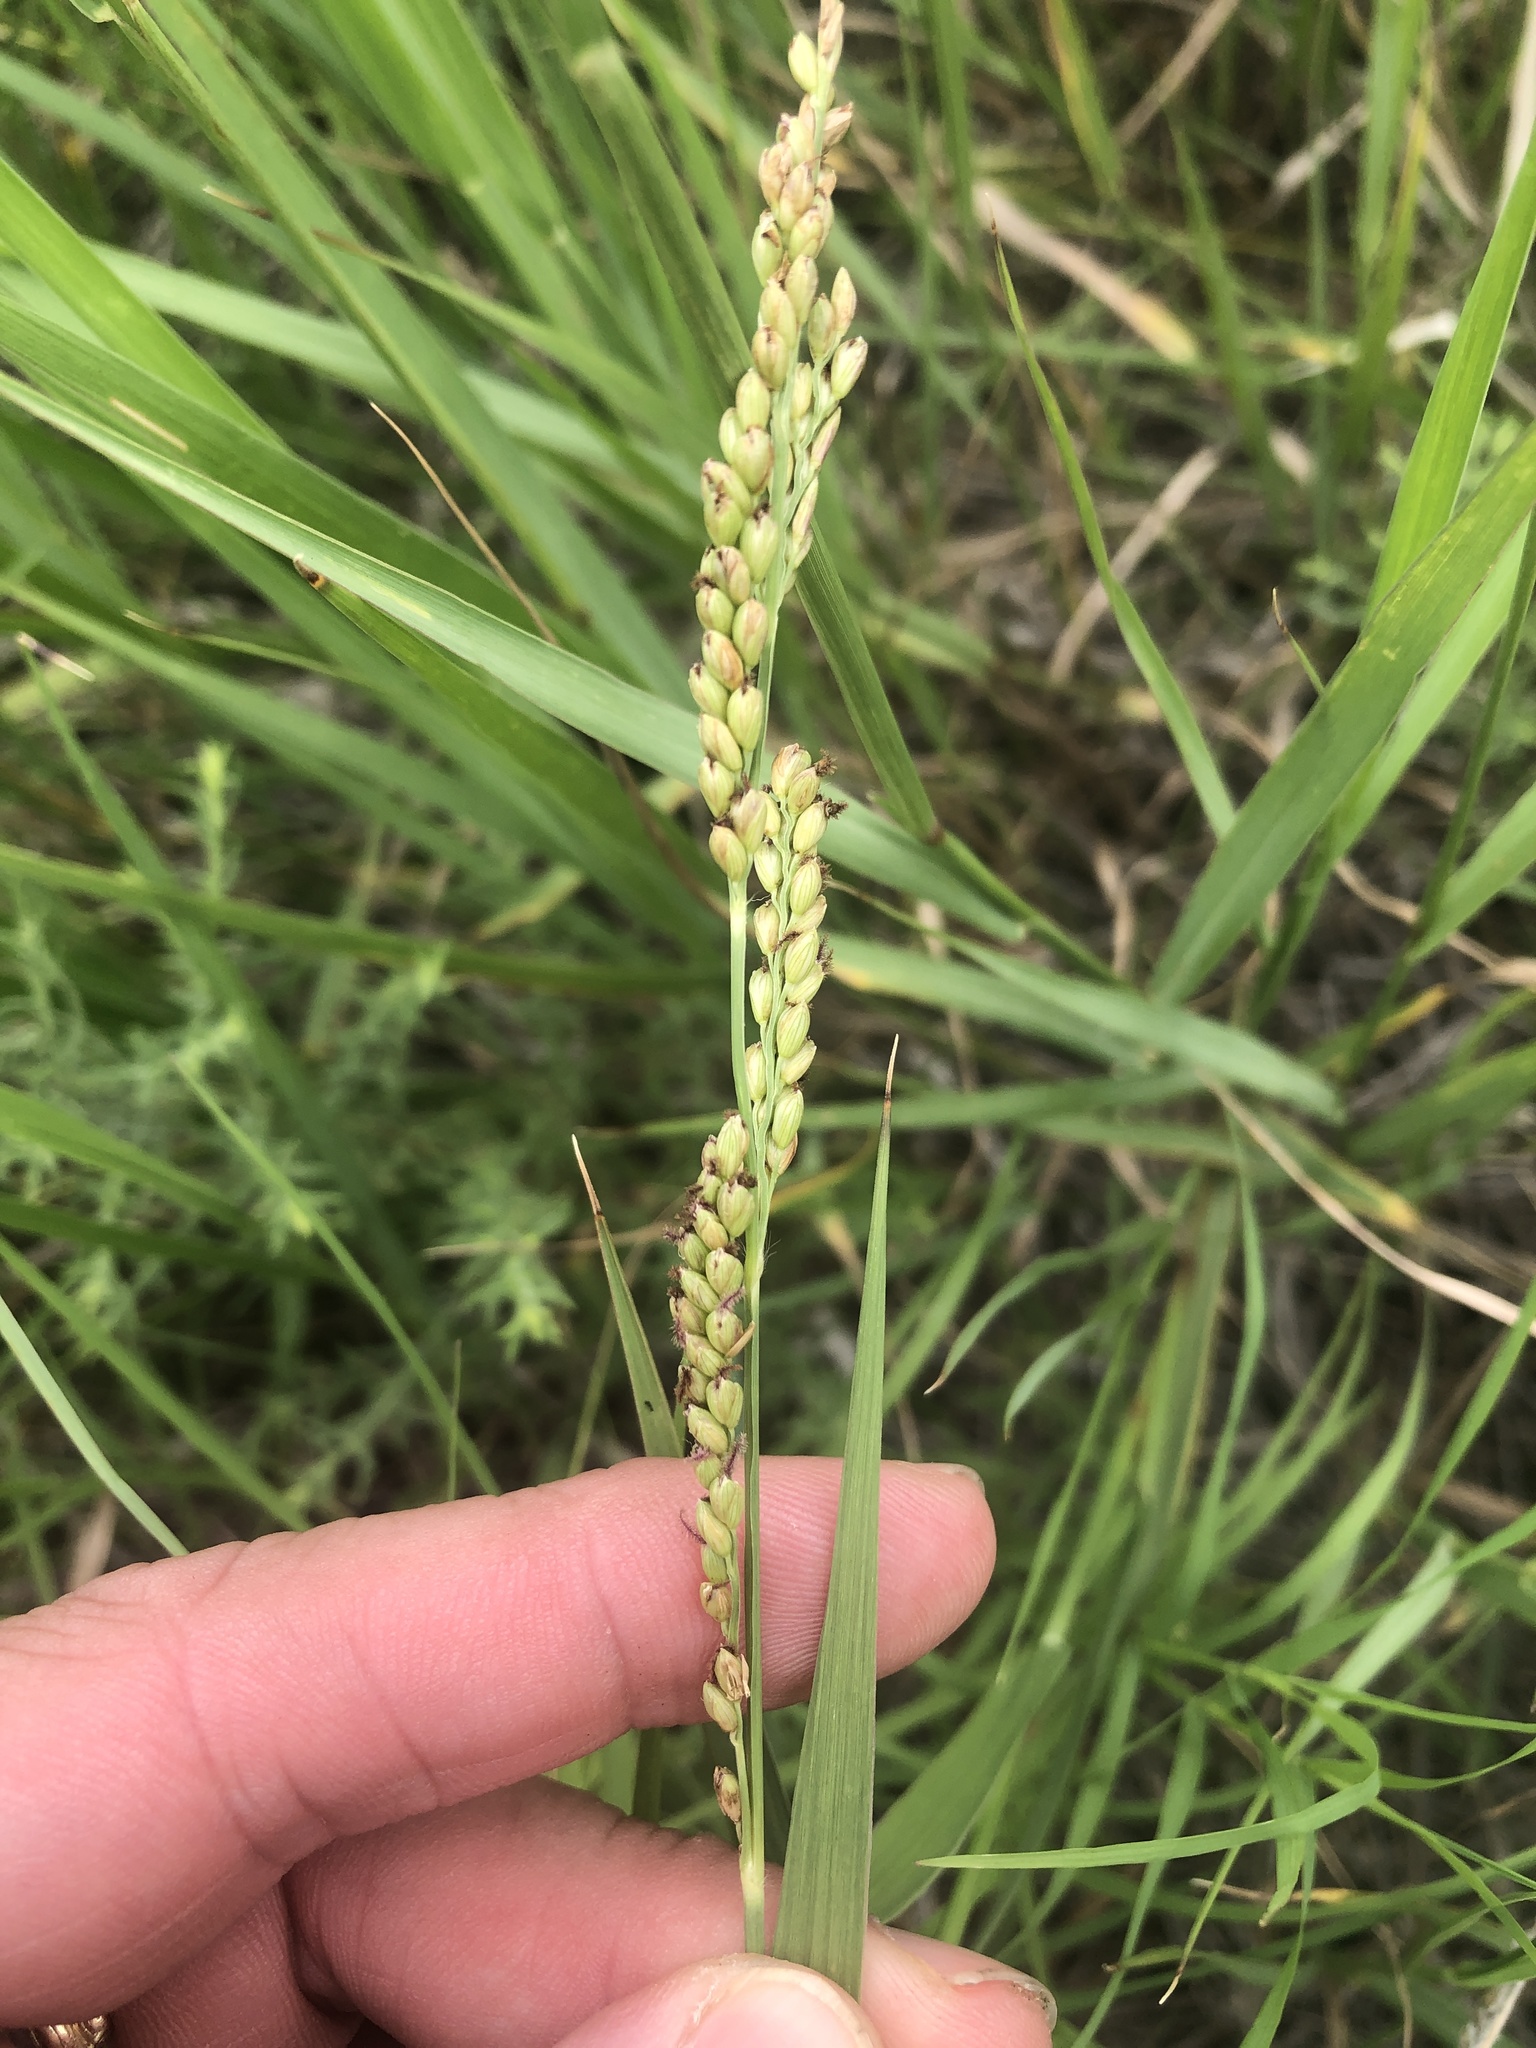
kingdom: Plantae
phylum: Tracheophyta
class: Liliopsida
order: Poales
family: Poaceae
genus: Hopia
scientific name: Hopia obtusa
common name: Vine-mesquite
